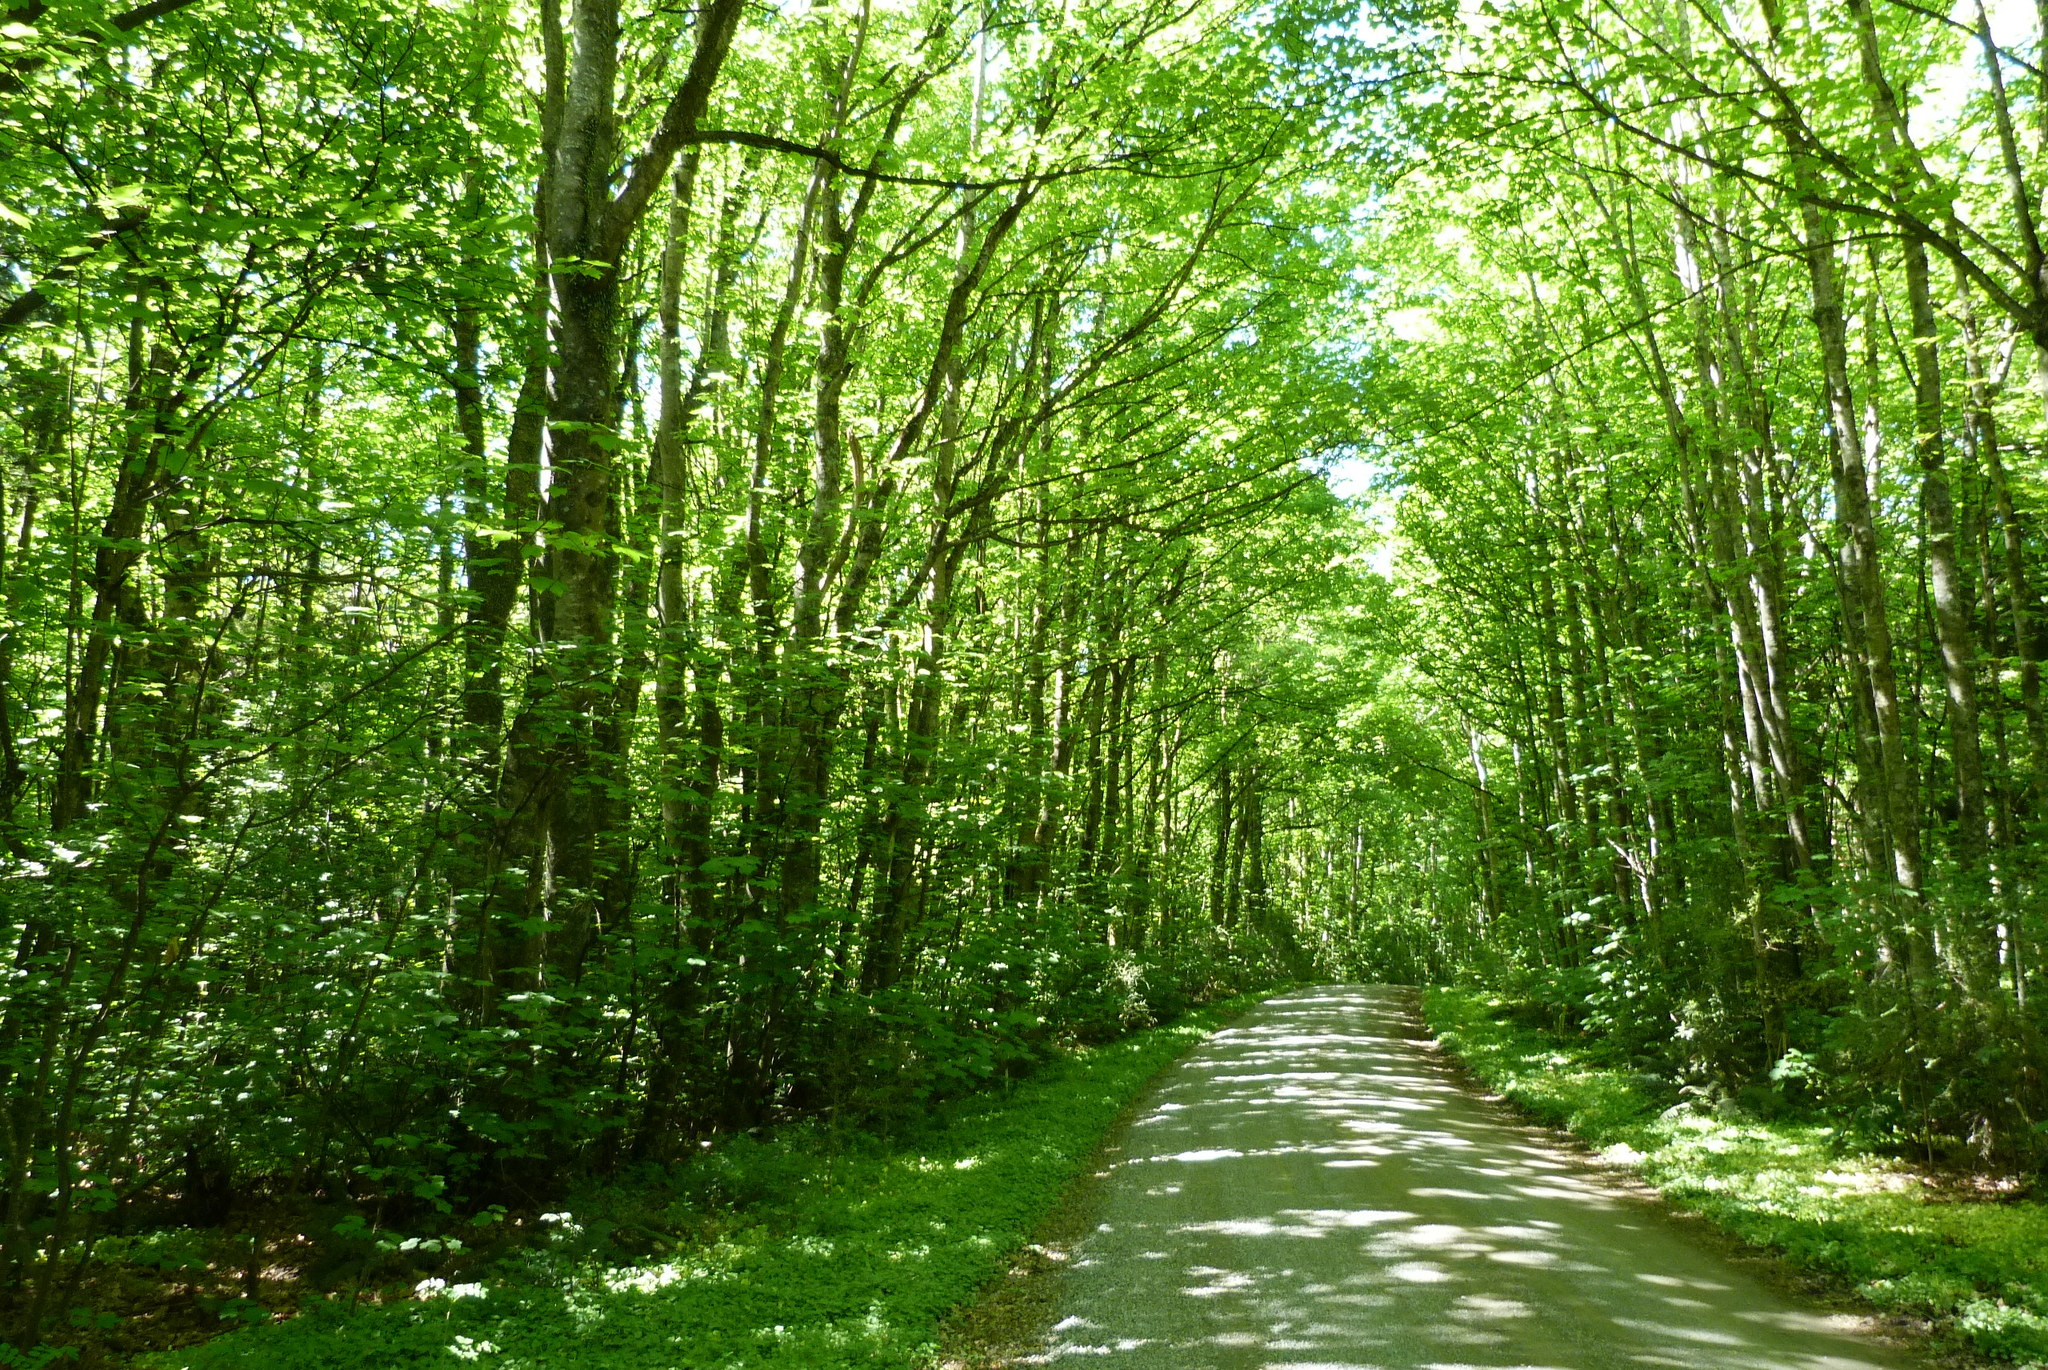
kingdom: Plantae
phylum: Tracheophyta
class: Magnoliopsida
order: Sapindales
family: Sapindaceae
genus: Acer
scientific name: Acer pseudoplatanus
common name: Sycamore
